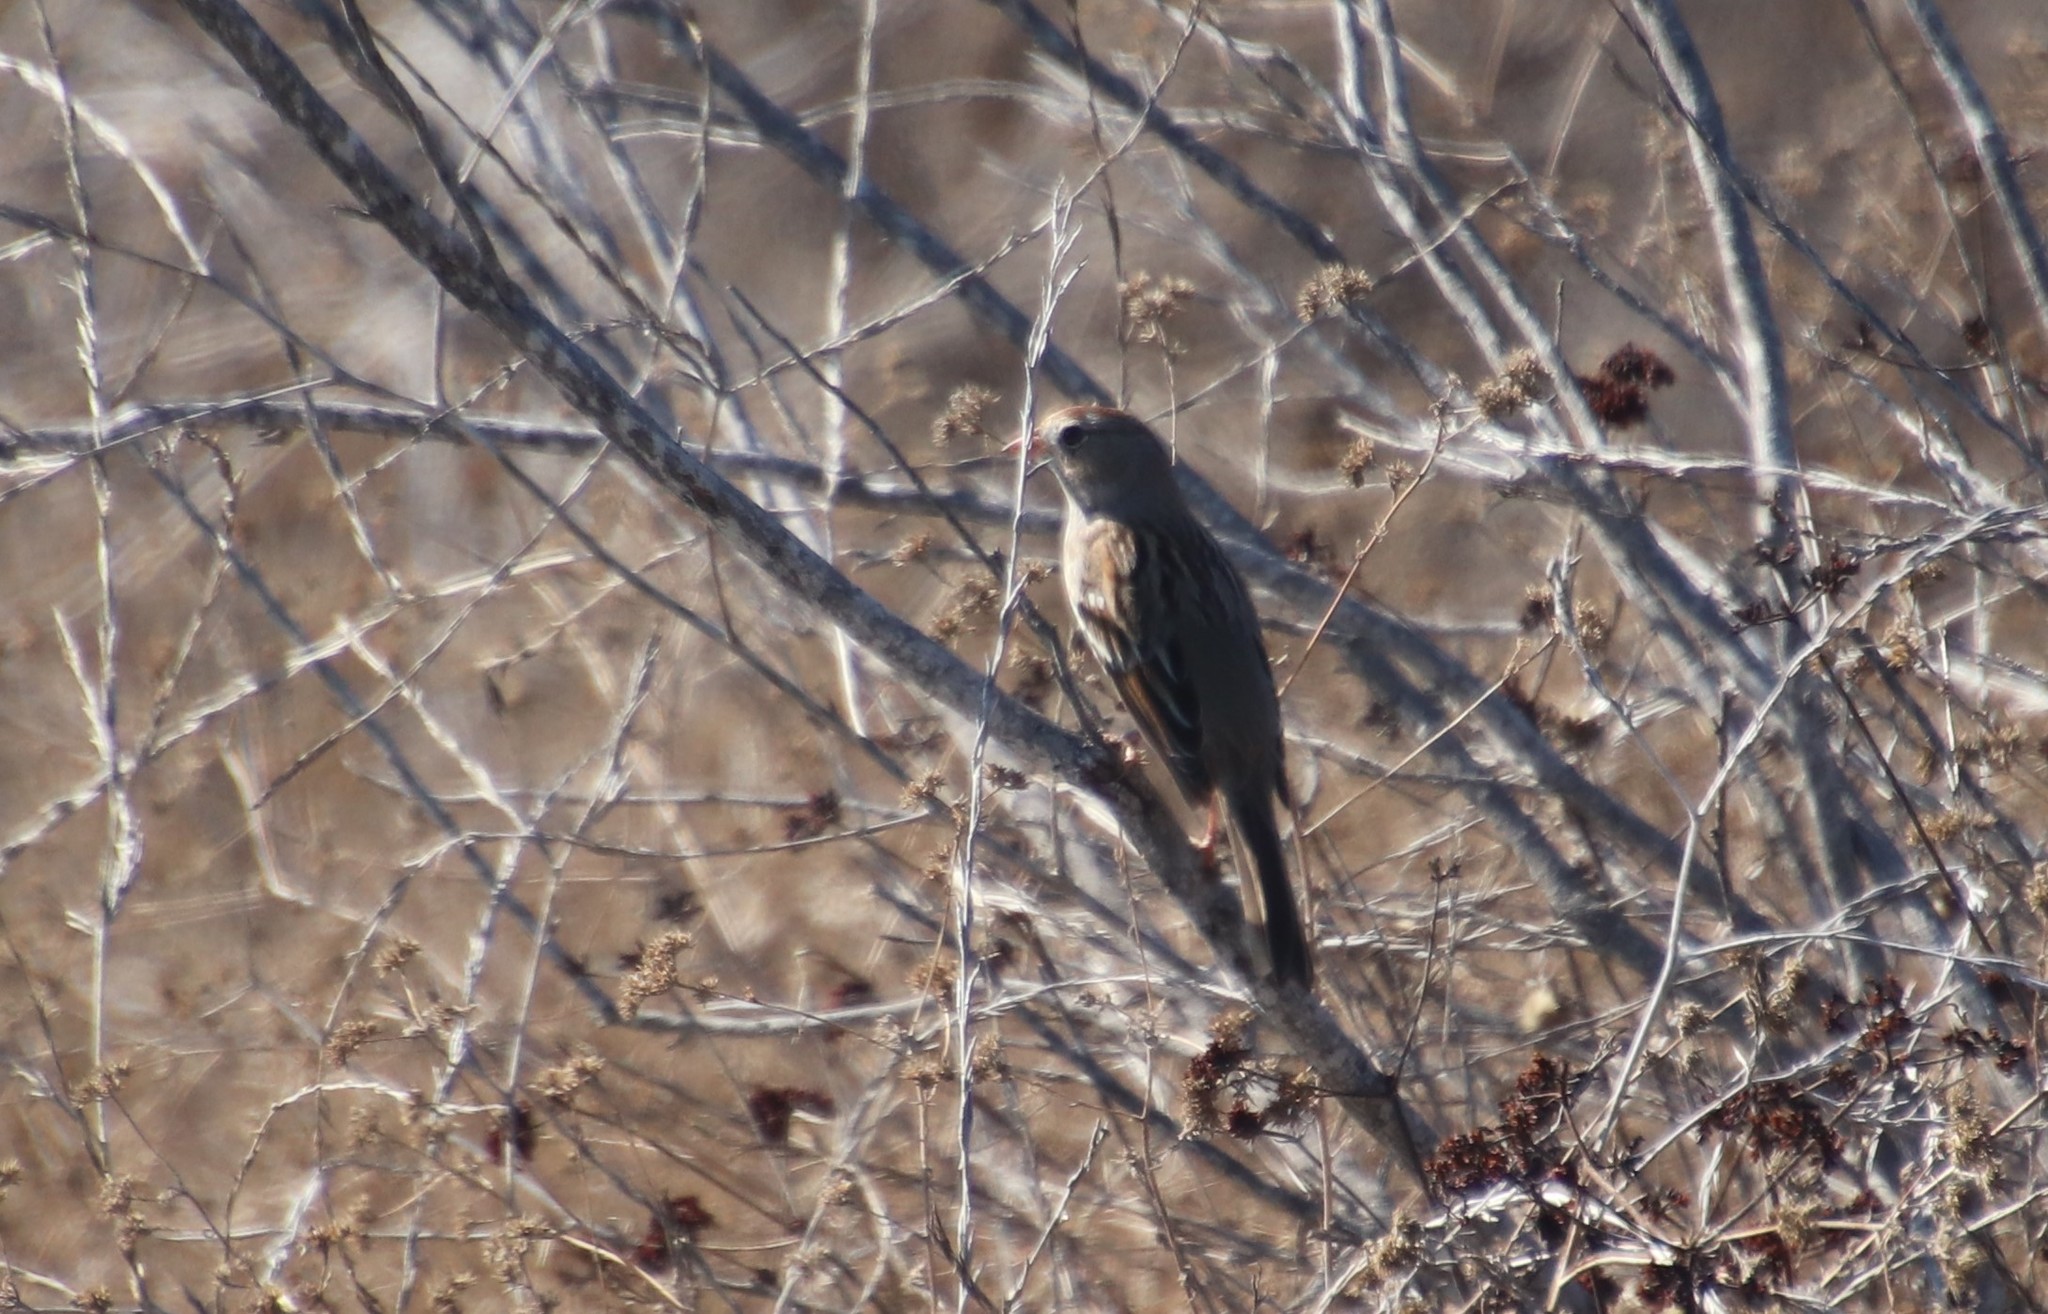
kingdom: Animalia
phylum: Chordata
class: Aves
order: Passeriformes
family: Passerellidae
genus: Zonotrichia
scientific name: Zonotrichia leucophrys
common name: White-crowned sparrow
